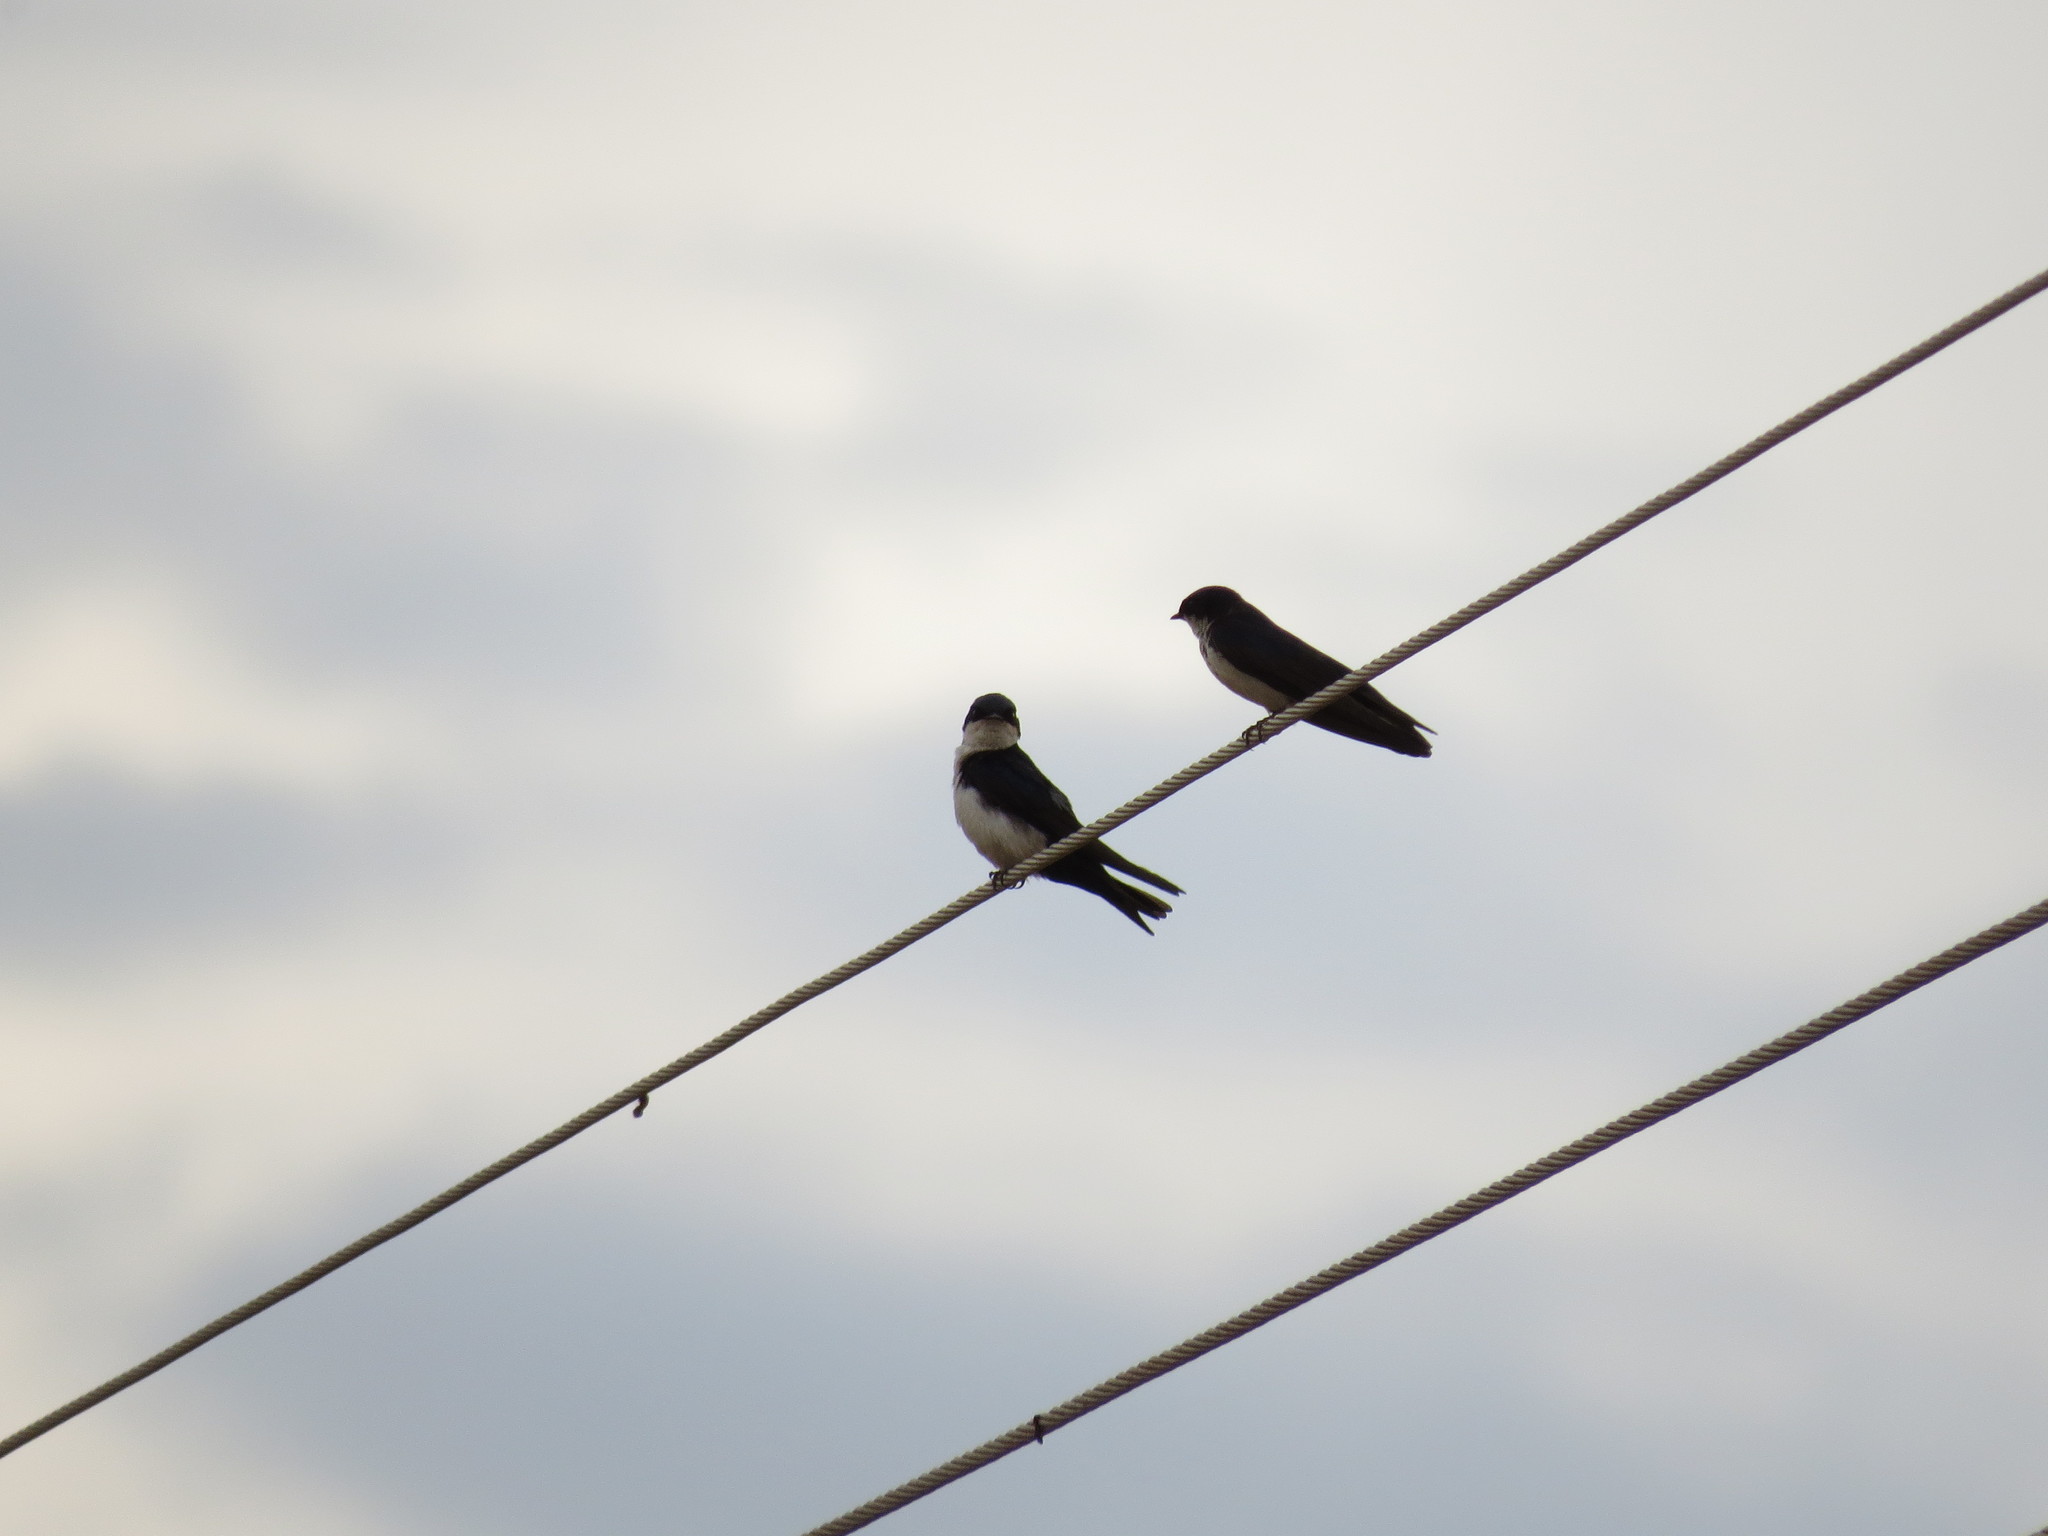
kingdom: Animalia
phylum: Chordata
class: Aves
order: Passeriformes
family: Hirundinidae
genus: Notiochelidon
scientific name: Notiochelidon cyanoleuca
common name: Blue-and-white swallow
